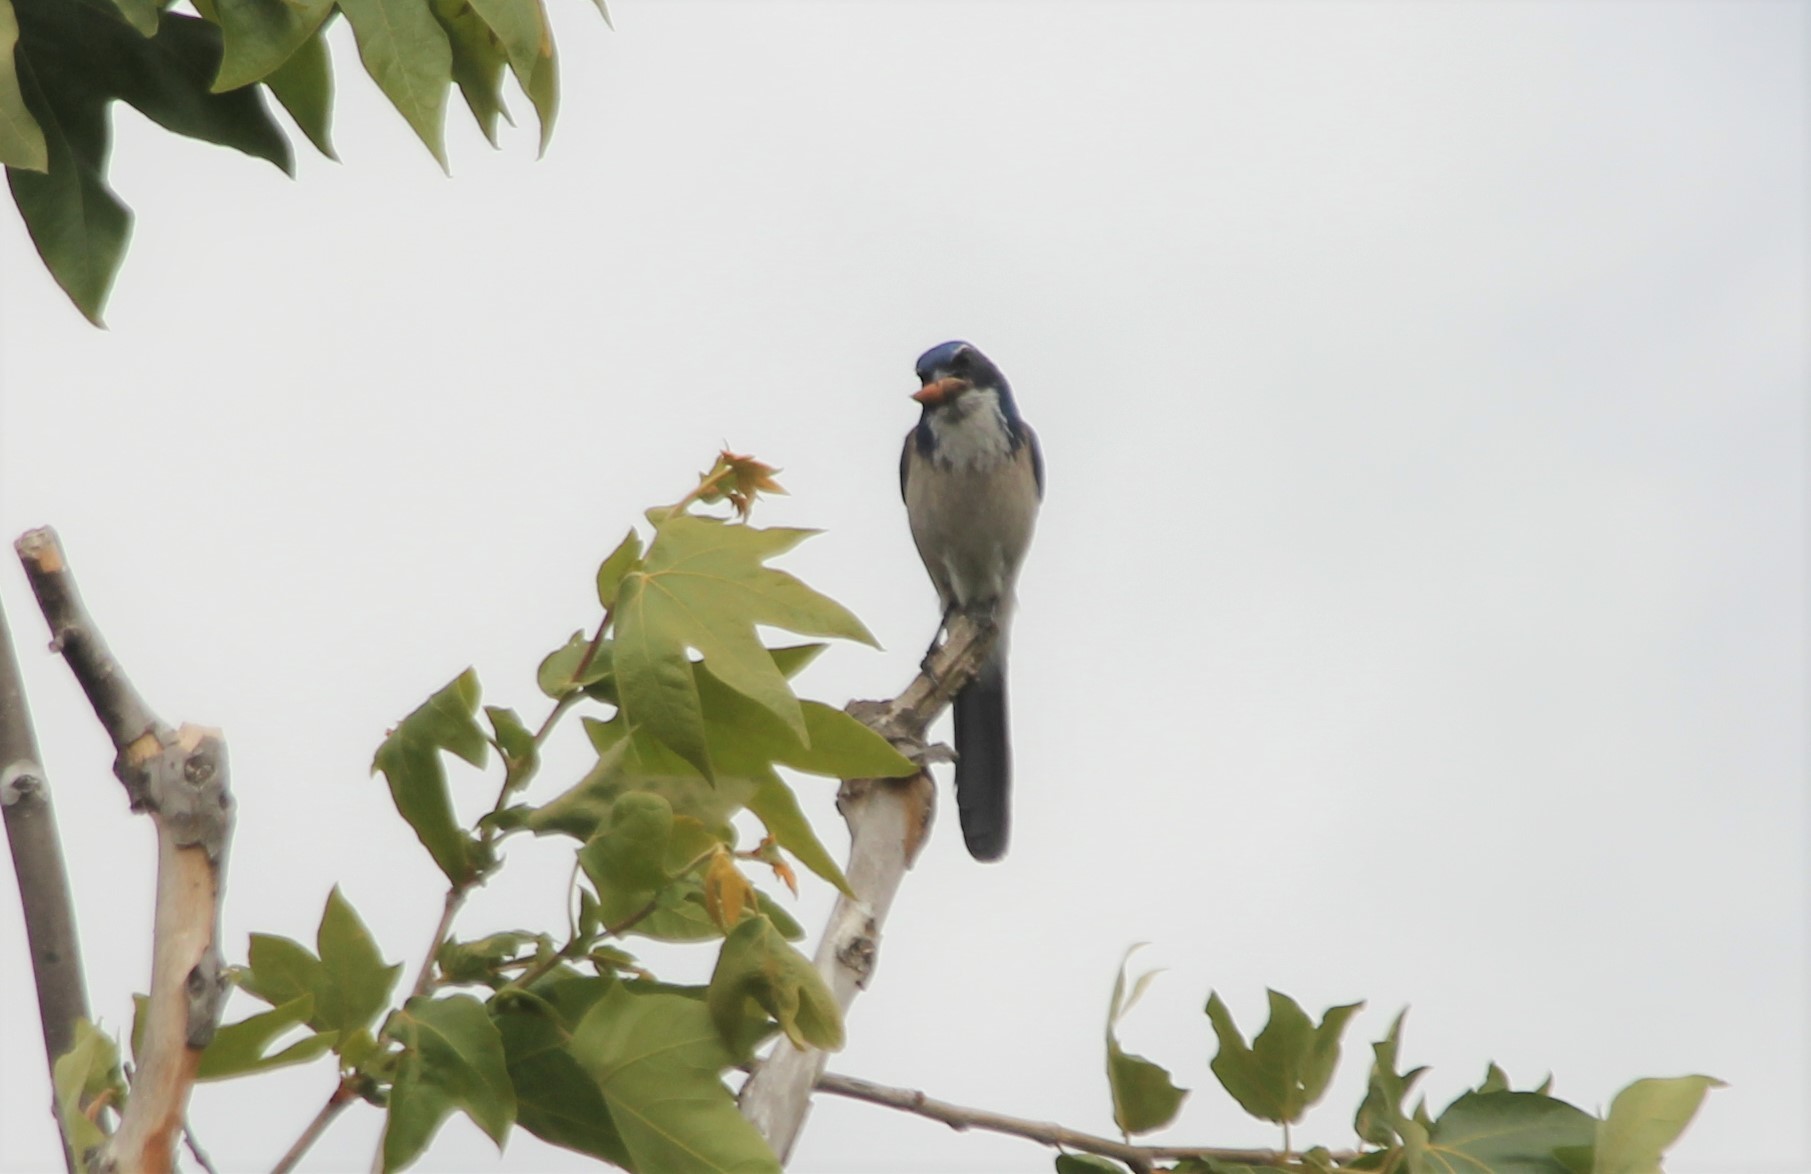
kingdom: Animalia
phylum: Chordata
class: Aves
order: Passeriformes
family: Corvidae
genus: Aphelocoma
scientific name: Aphelocoma californica
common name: California scrub-jay
